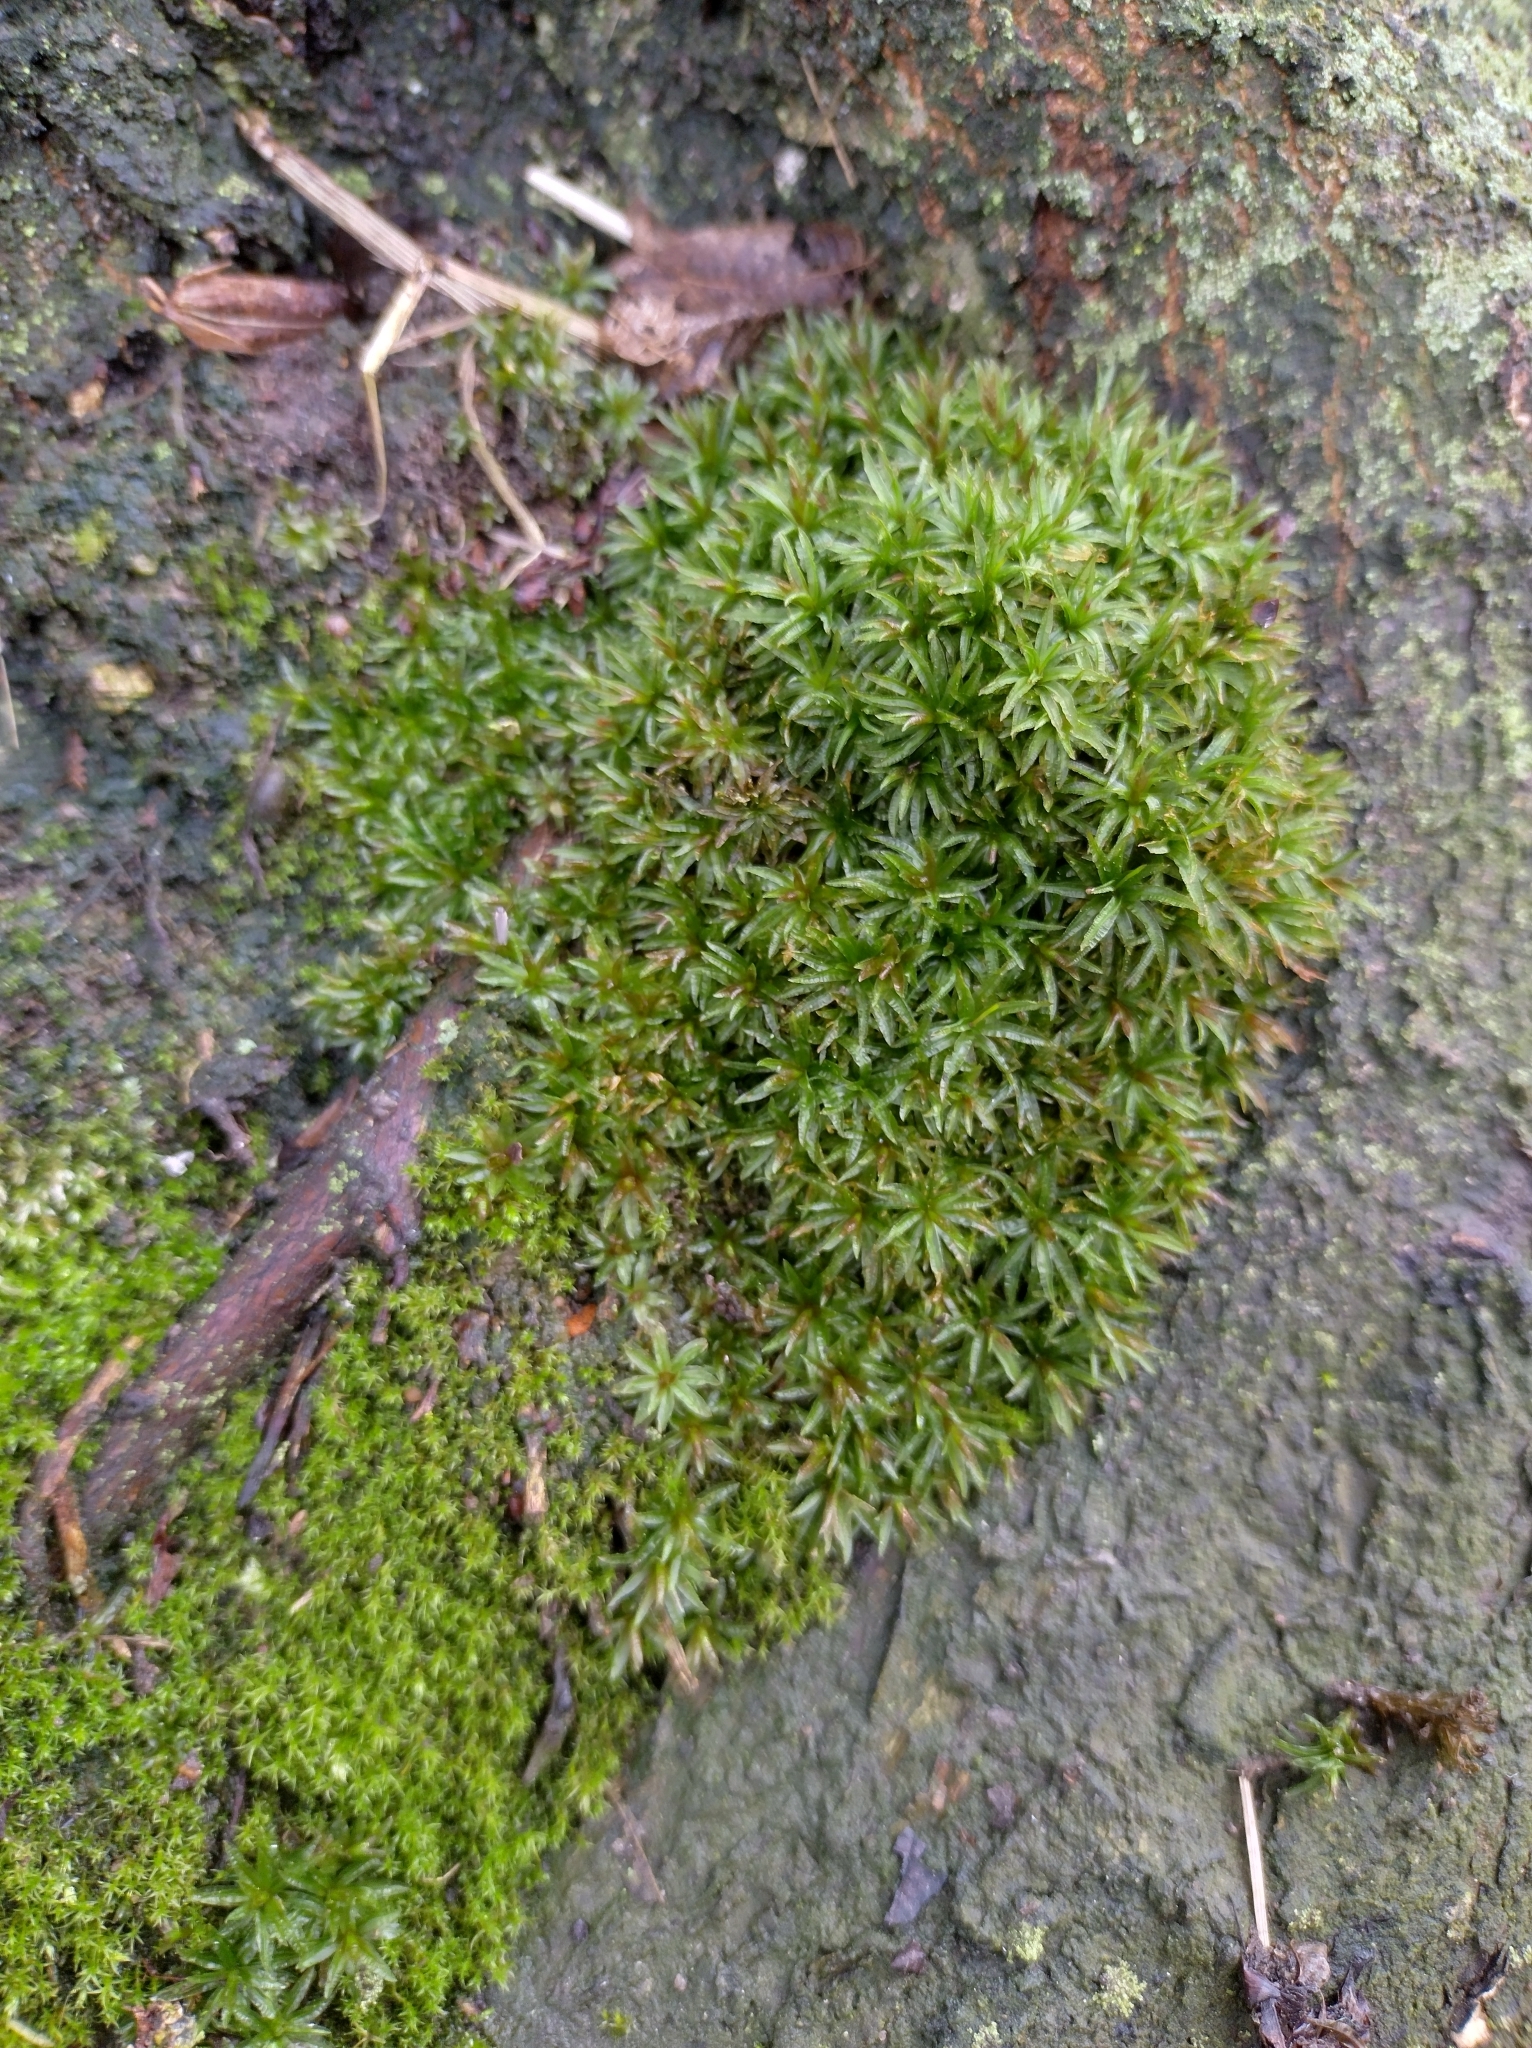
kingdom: Plantae
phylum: Bryophyta
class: Polytrichopsida
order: Polytrichales
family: Polytrichaceae
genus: Atrichum
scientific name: Atrichum undulatum
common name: Common smoothcap
